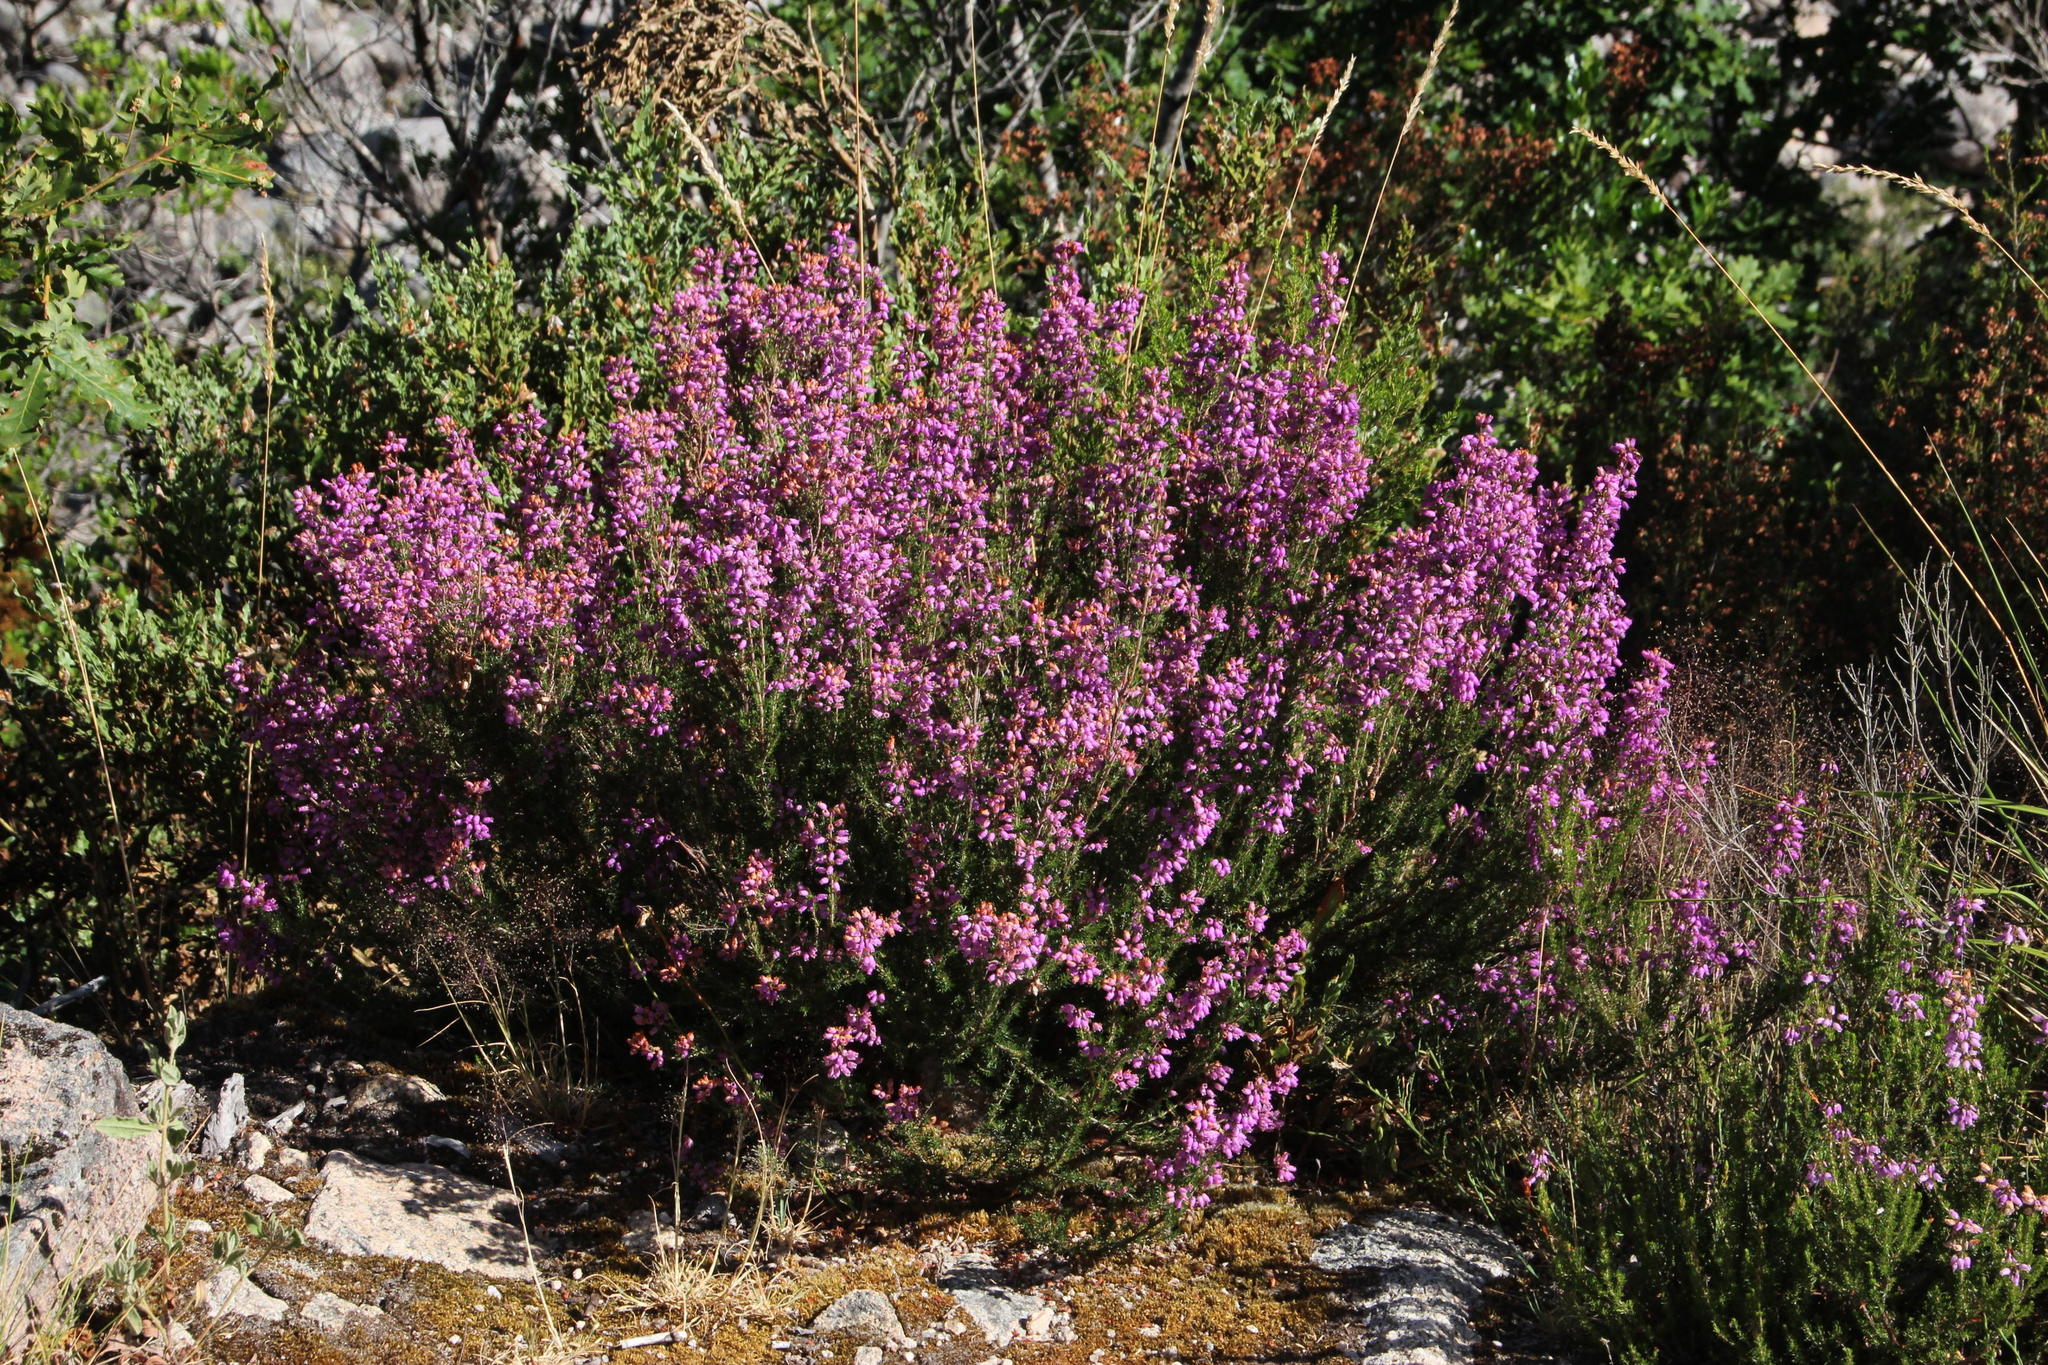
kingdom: Plantae
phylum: Tracheophyta
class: Magnoliopsida
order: Ericales
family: Ericaceae
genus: Erica
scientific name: Erica cinerea
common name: Bell heather
